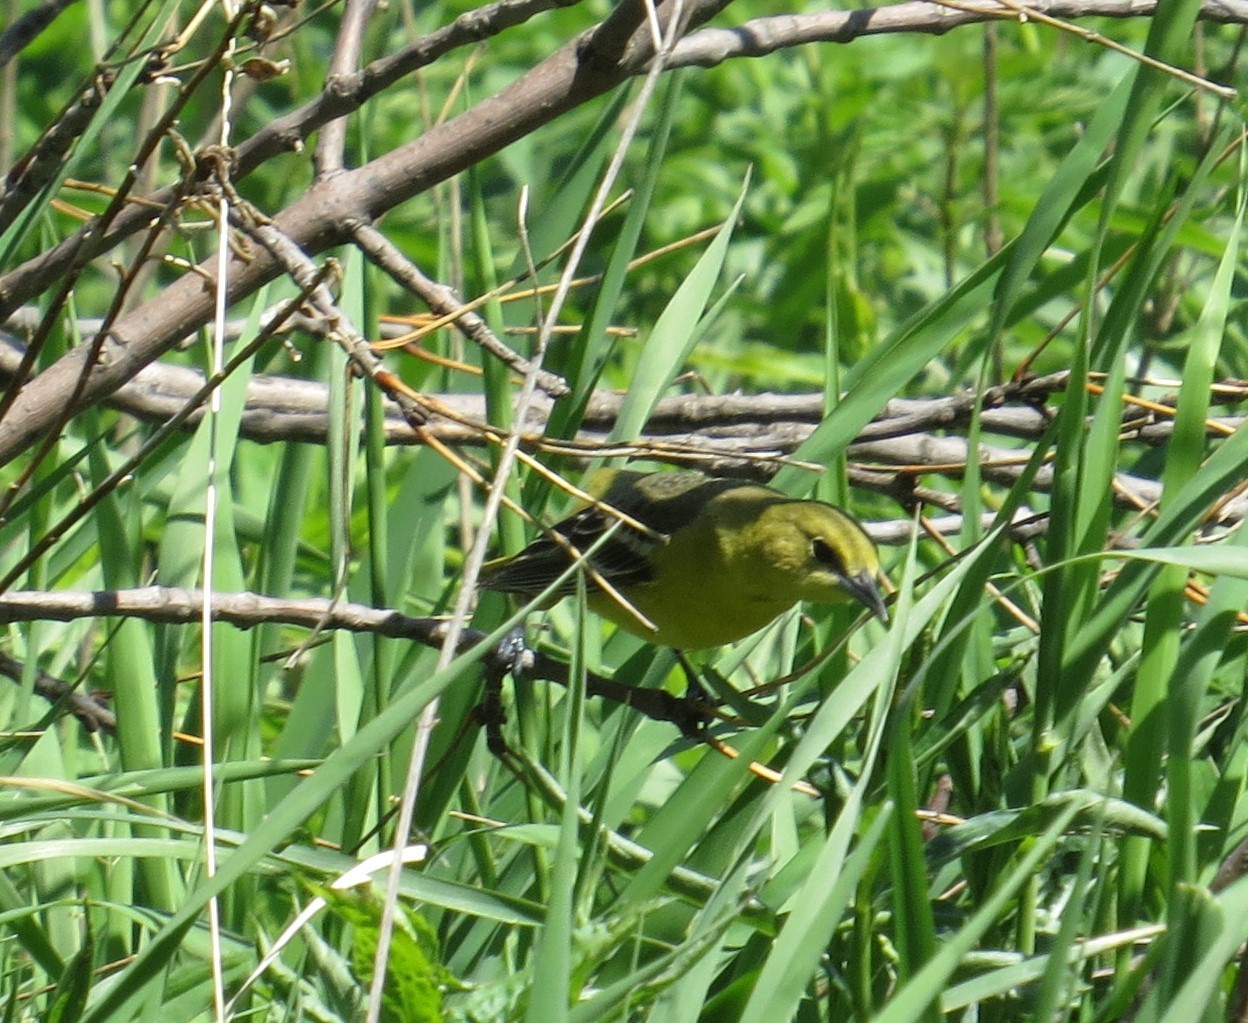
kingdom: Animalia
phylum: Chordata
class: Aves
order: Passeriformes
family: Icteridae
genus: Icterus
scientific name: Icterus spurius
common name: Orchard oriole
